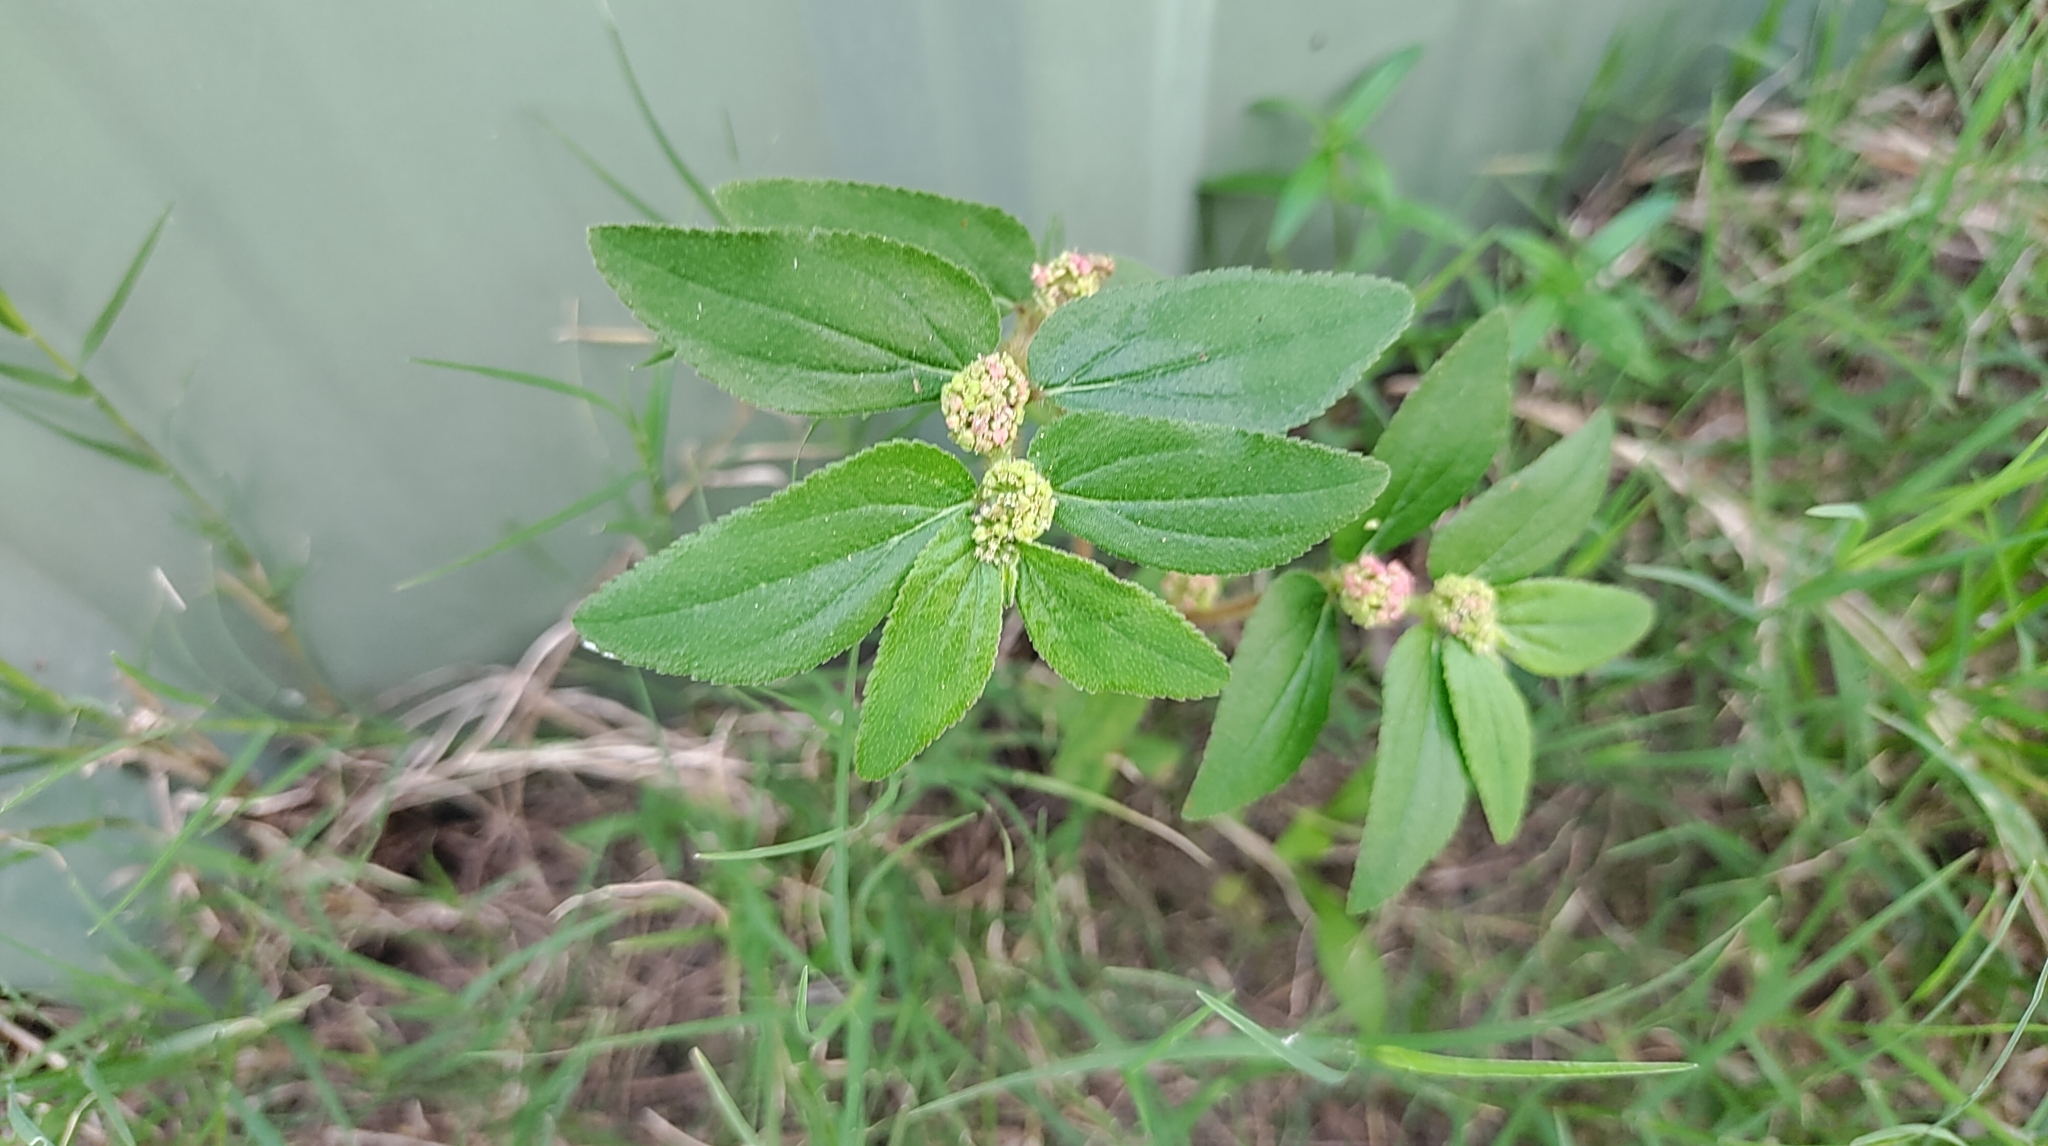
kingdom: Plantae
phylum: Tracheophyta
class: Magnoliopsida
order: Malpighiales
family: Euphorbiaceae
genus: Euphorbia
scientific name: Euphorbia hirta
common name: Pillpod sandmat
